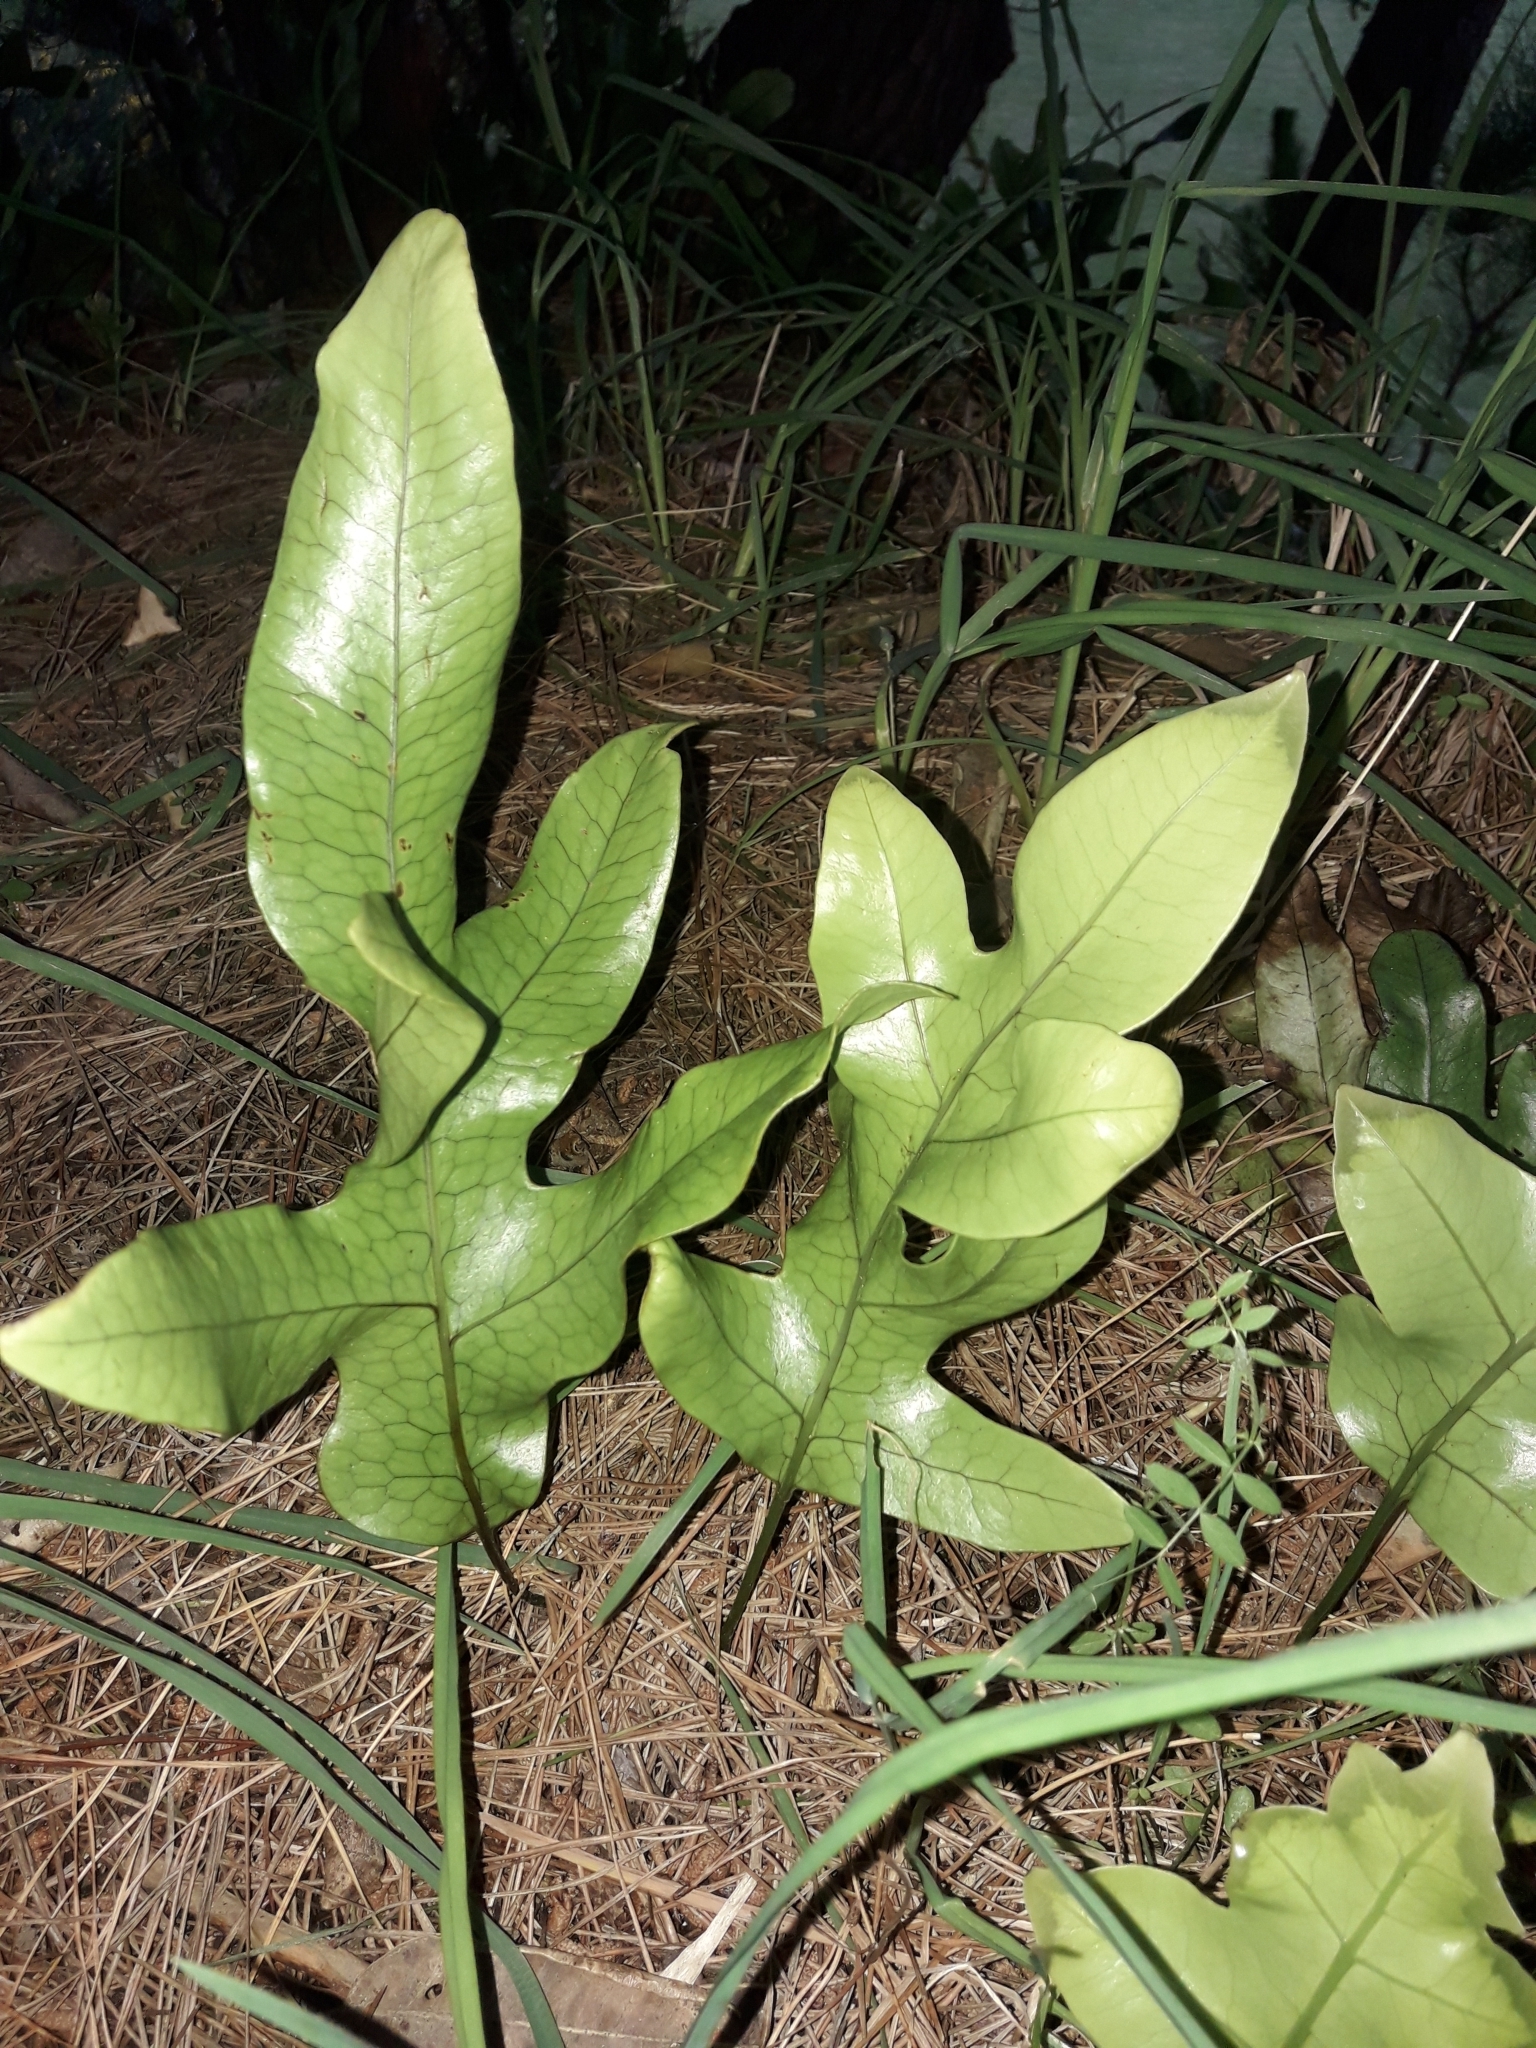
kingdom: Plantae
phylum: Tracheophyta
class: Polypodiopsida
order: Polypodiales
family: Polypodiaceae
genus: Lecanopteris
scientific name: Lecanopteris pustulata
